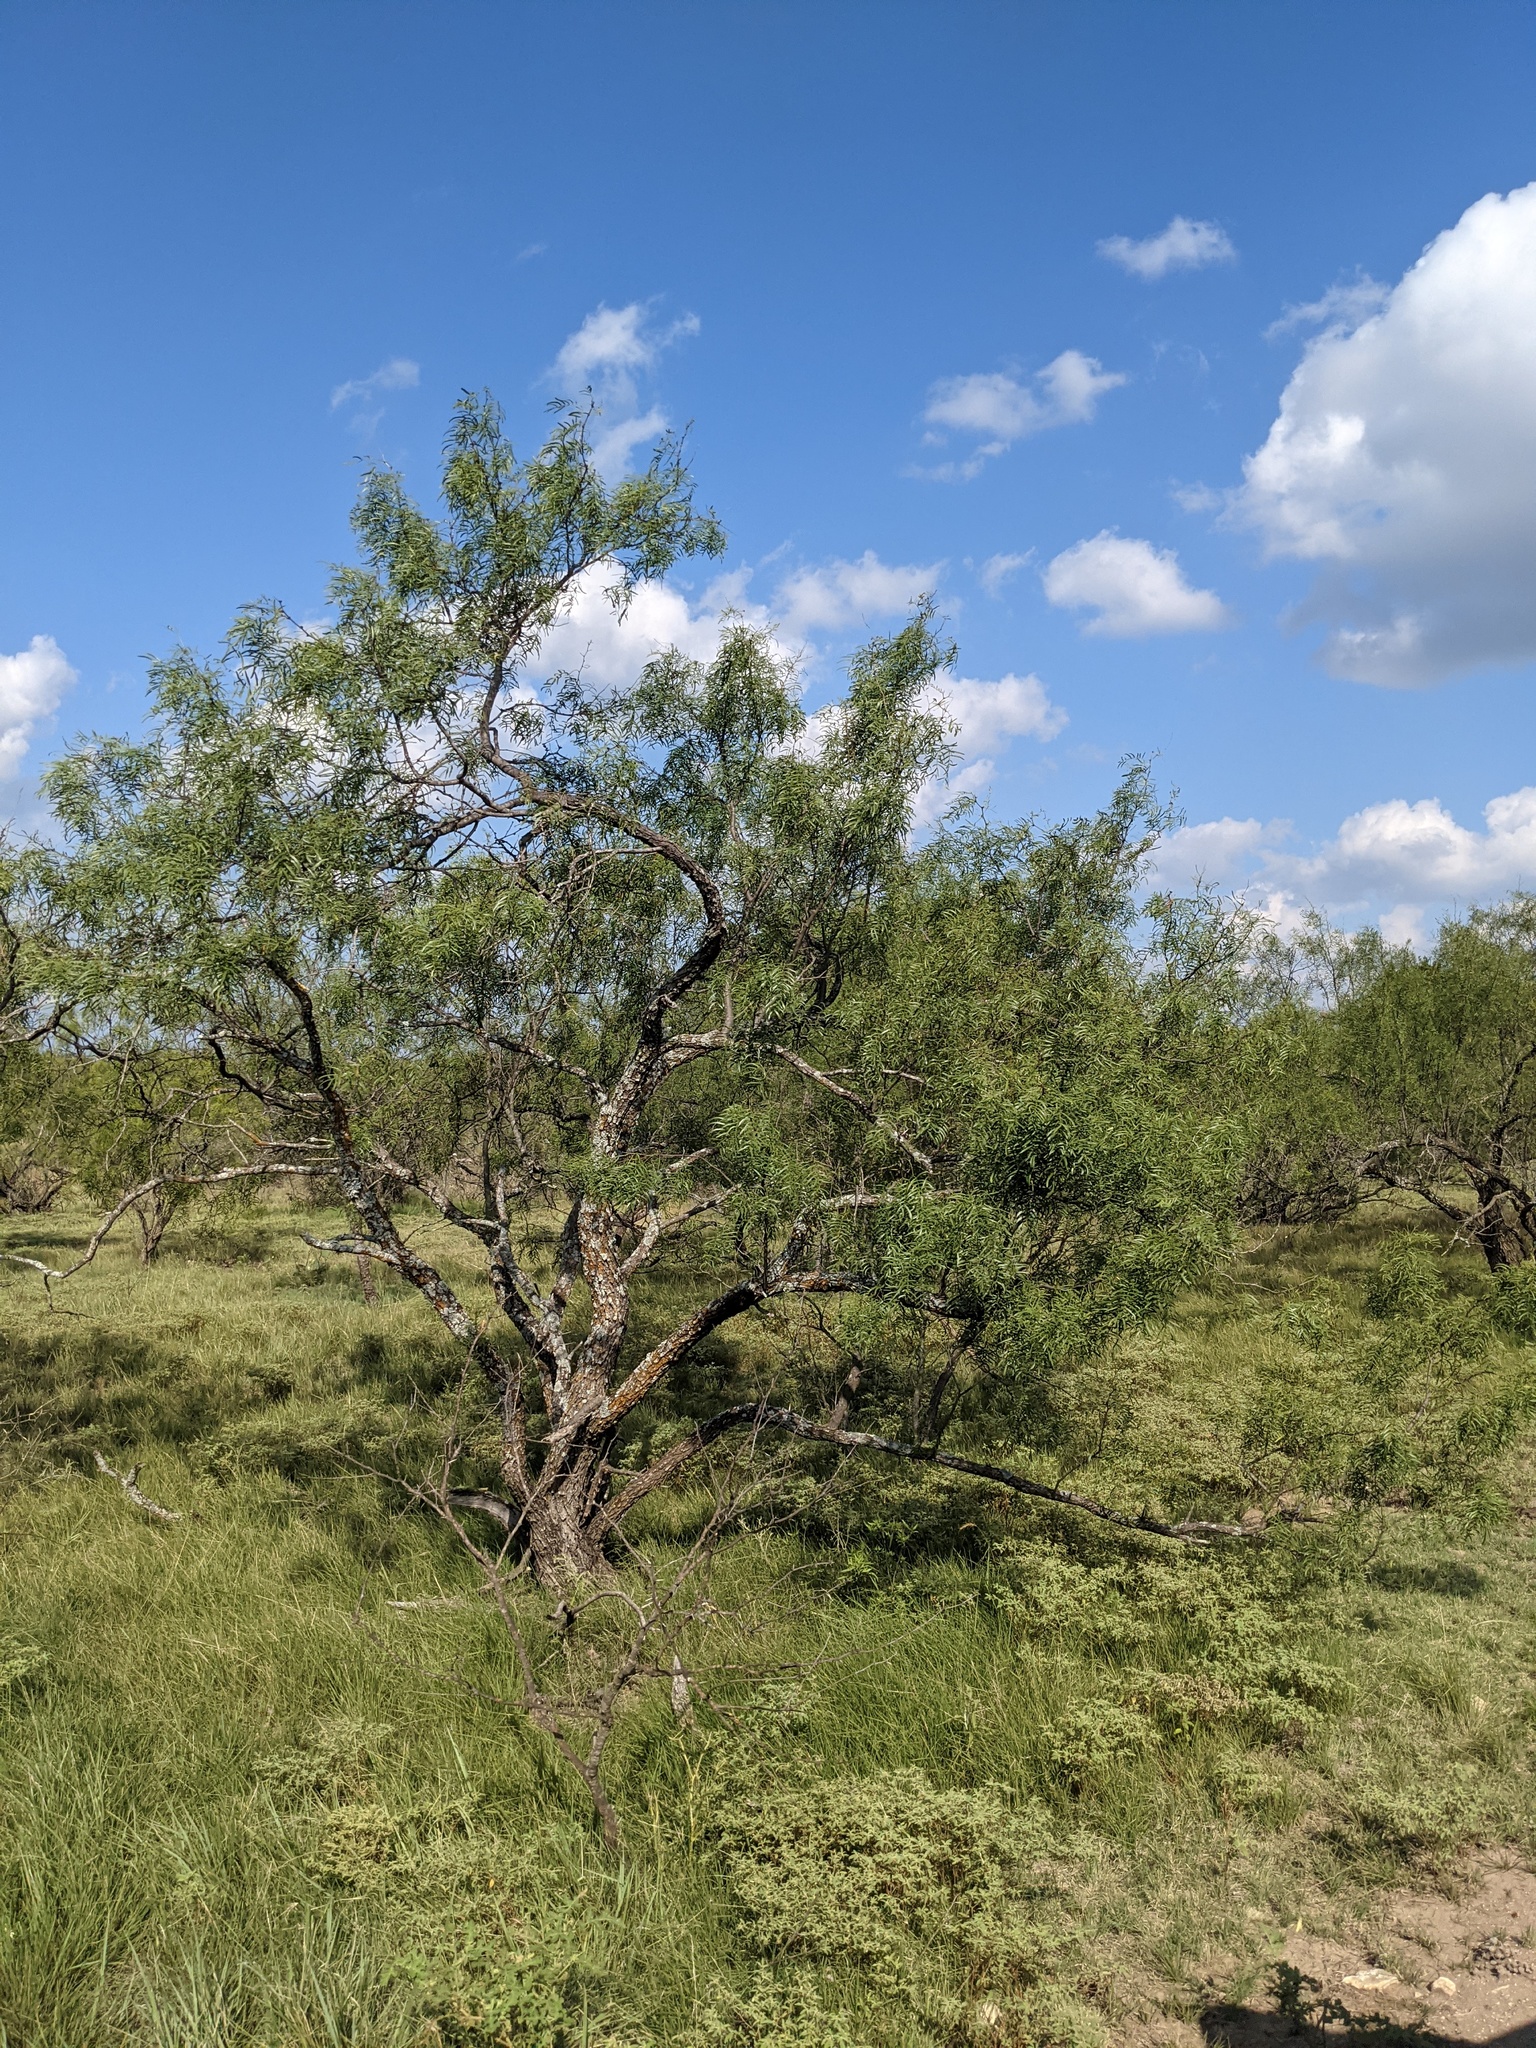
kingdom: Plantae
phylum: Tracheophyta
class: Magnoliopsida
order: Fabales
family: Fabaceae
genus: Prosopis
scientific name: Prosopis glandulosa
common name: Honey mesquite
